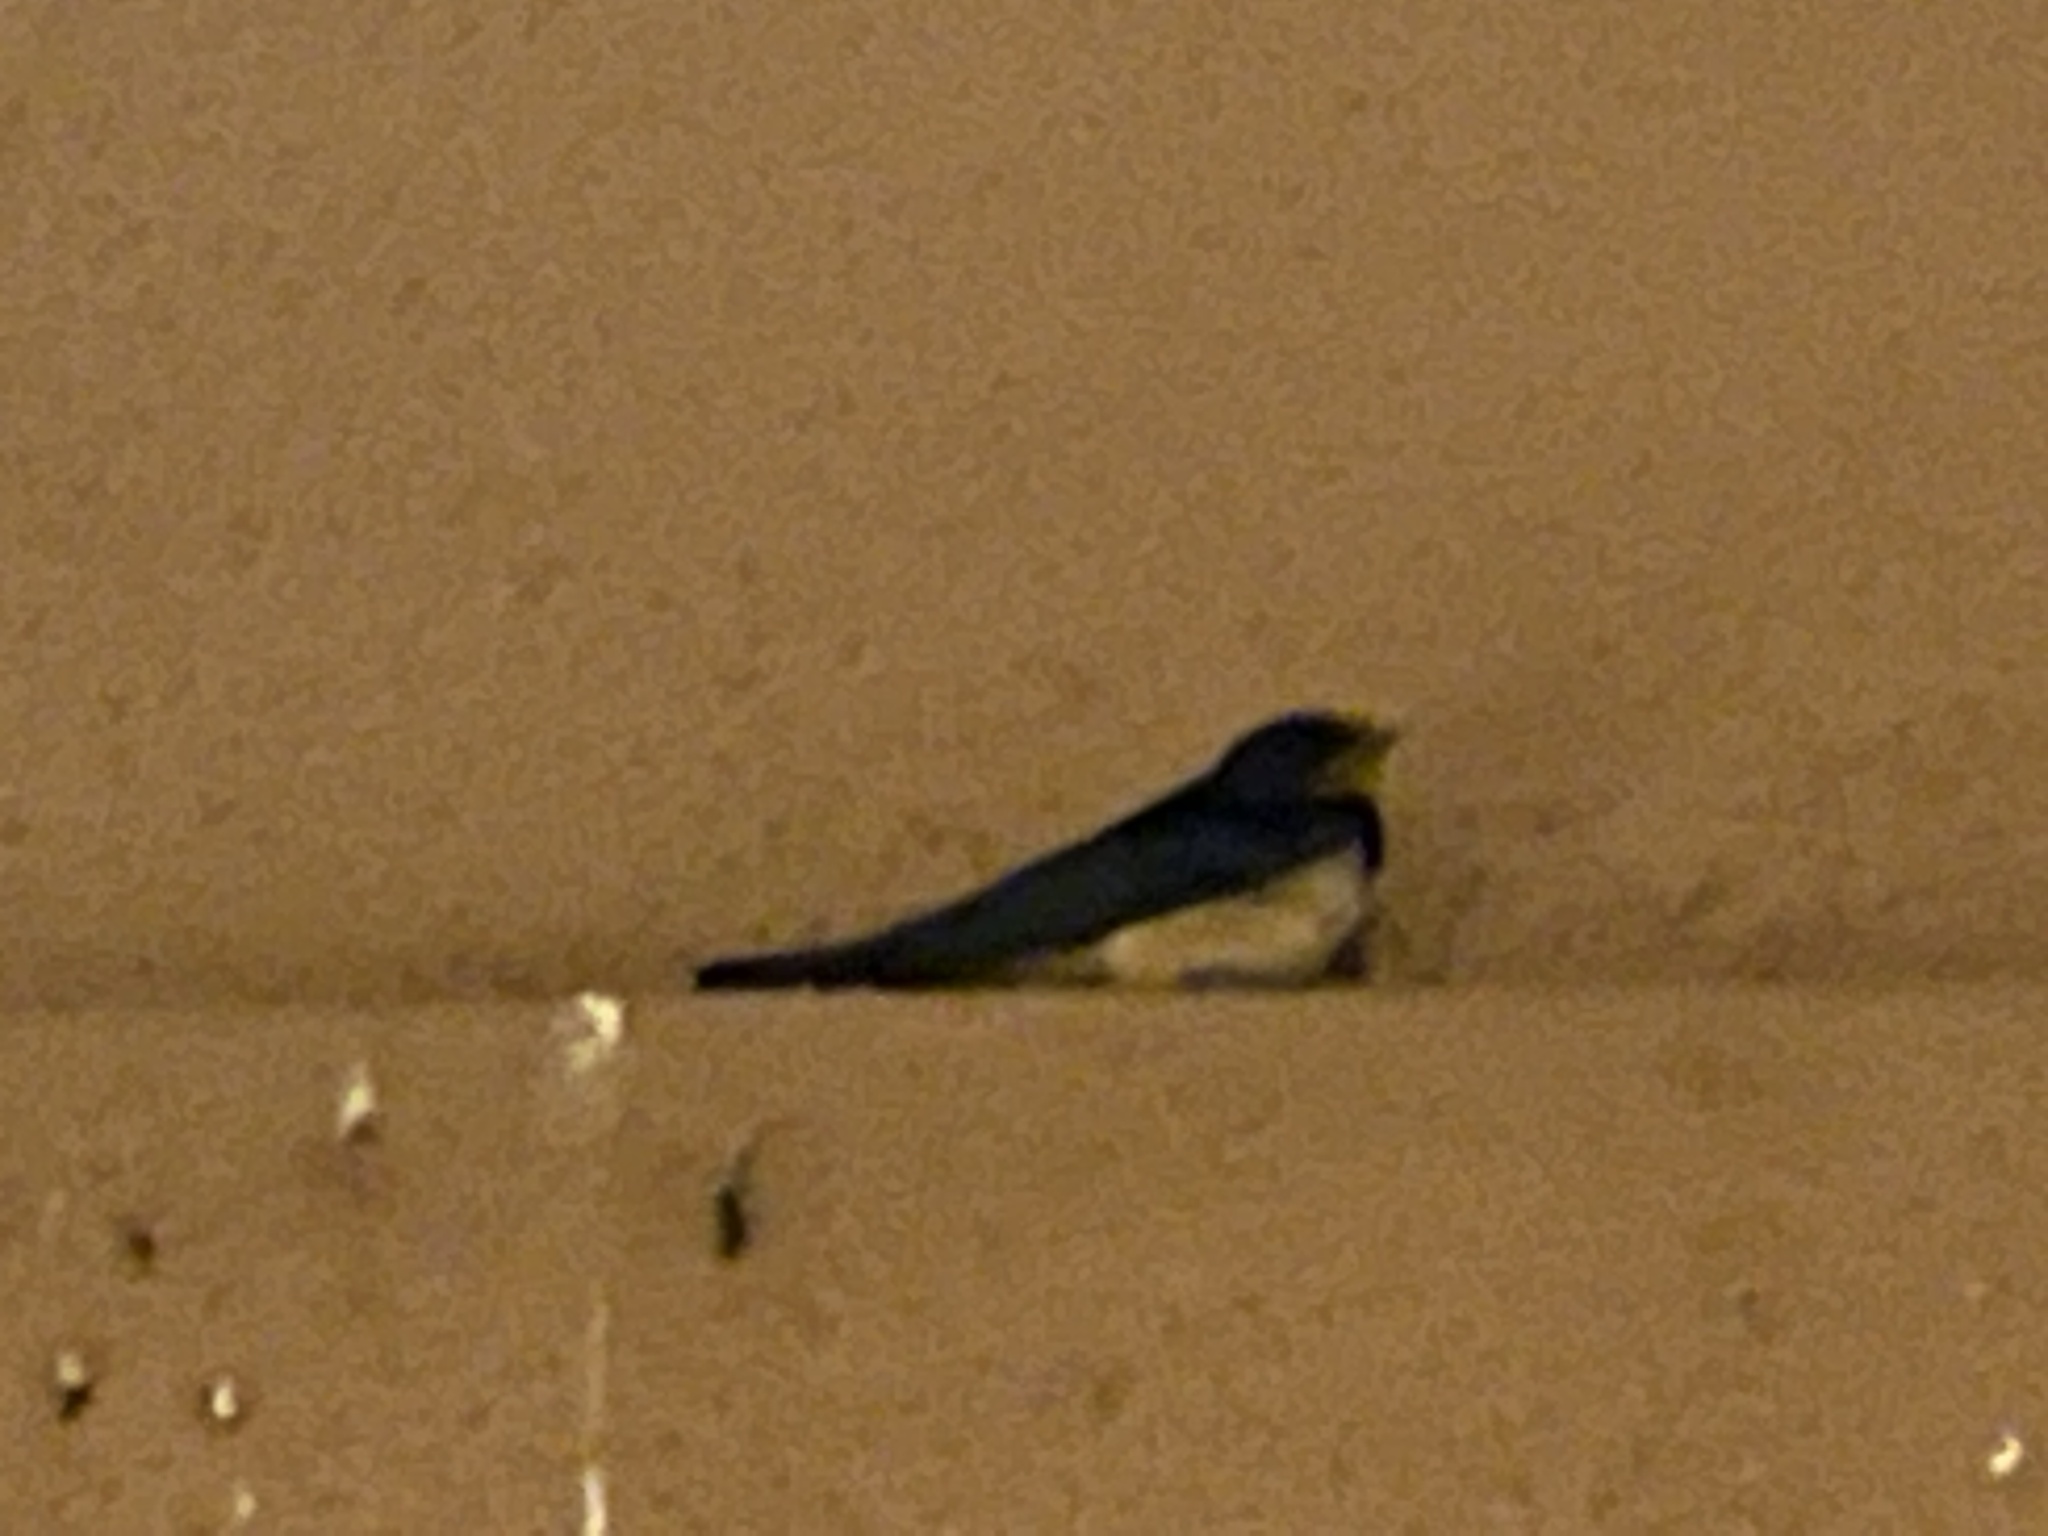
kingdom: Animalia
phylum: Chordata
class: Aves
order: Passeriformes
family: Hirundinidae
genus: Hirundo
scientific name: Hirundo rustica
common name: Barn swallow
